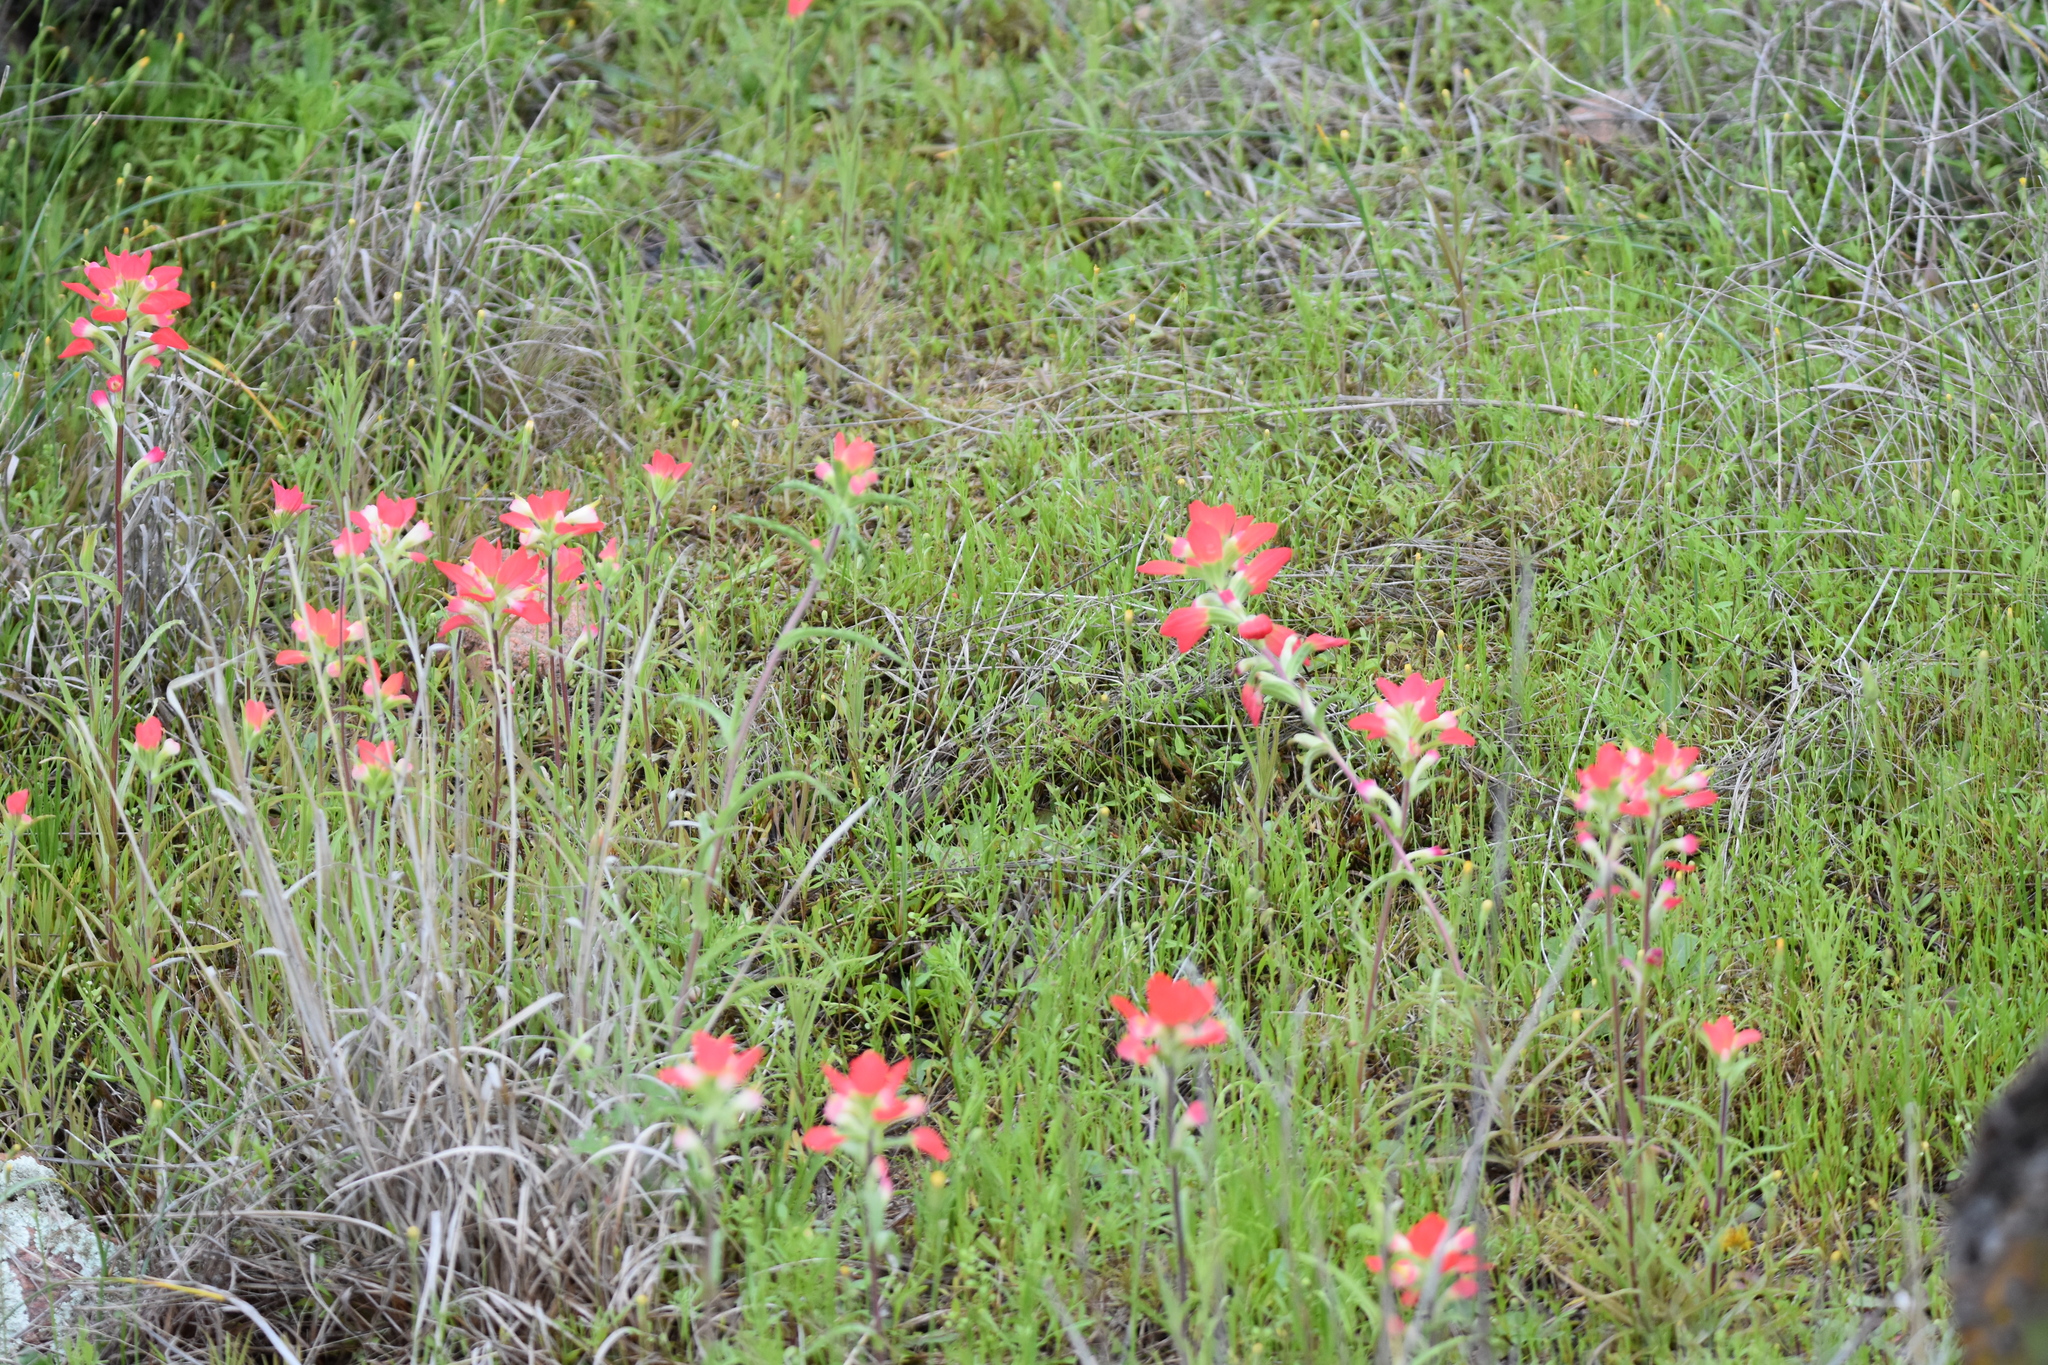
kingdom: Plantae
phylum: Tracheophyta
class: Magnoliopsida
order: Lamiales
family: Orobanchaceae
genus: Castilleja
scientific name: Castilleja indivisa
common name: Texas paintbrush
